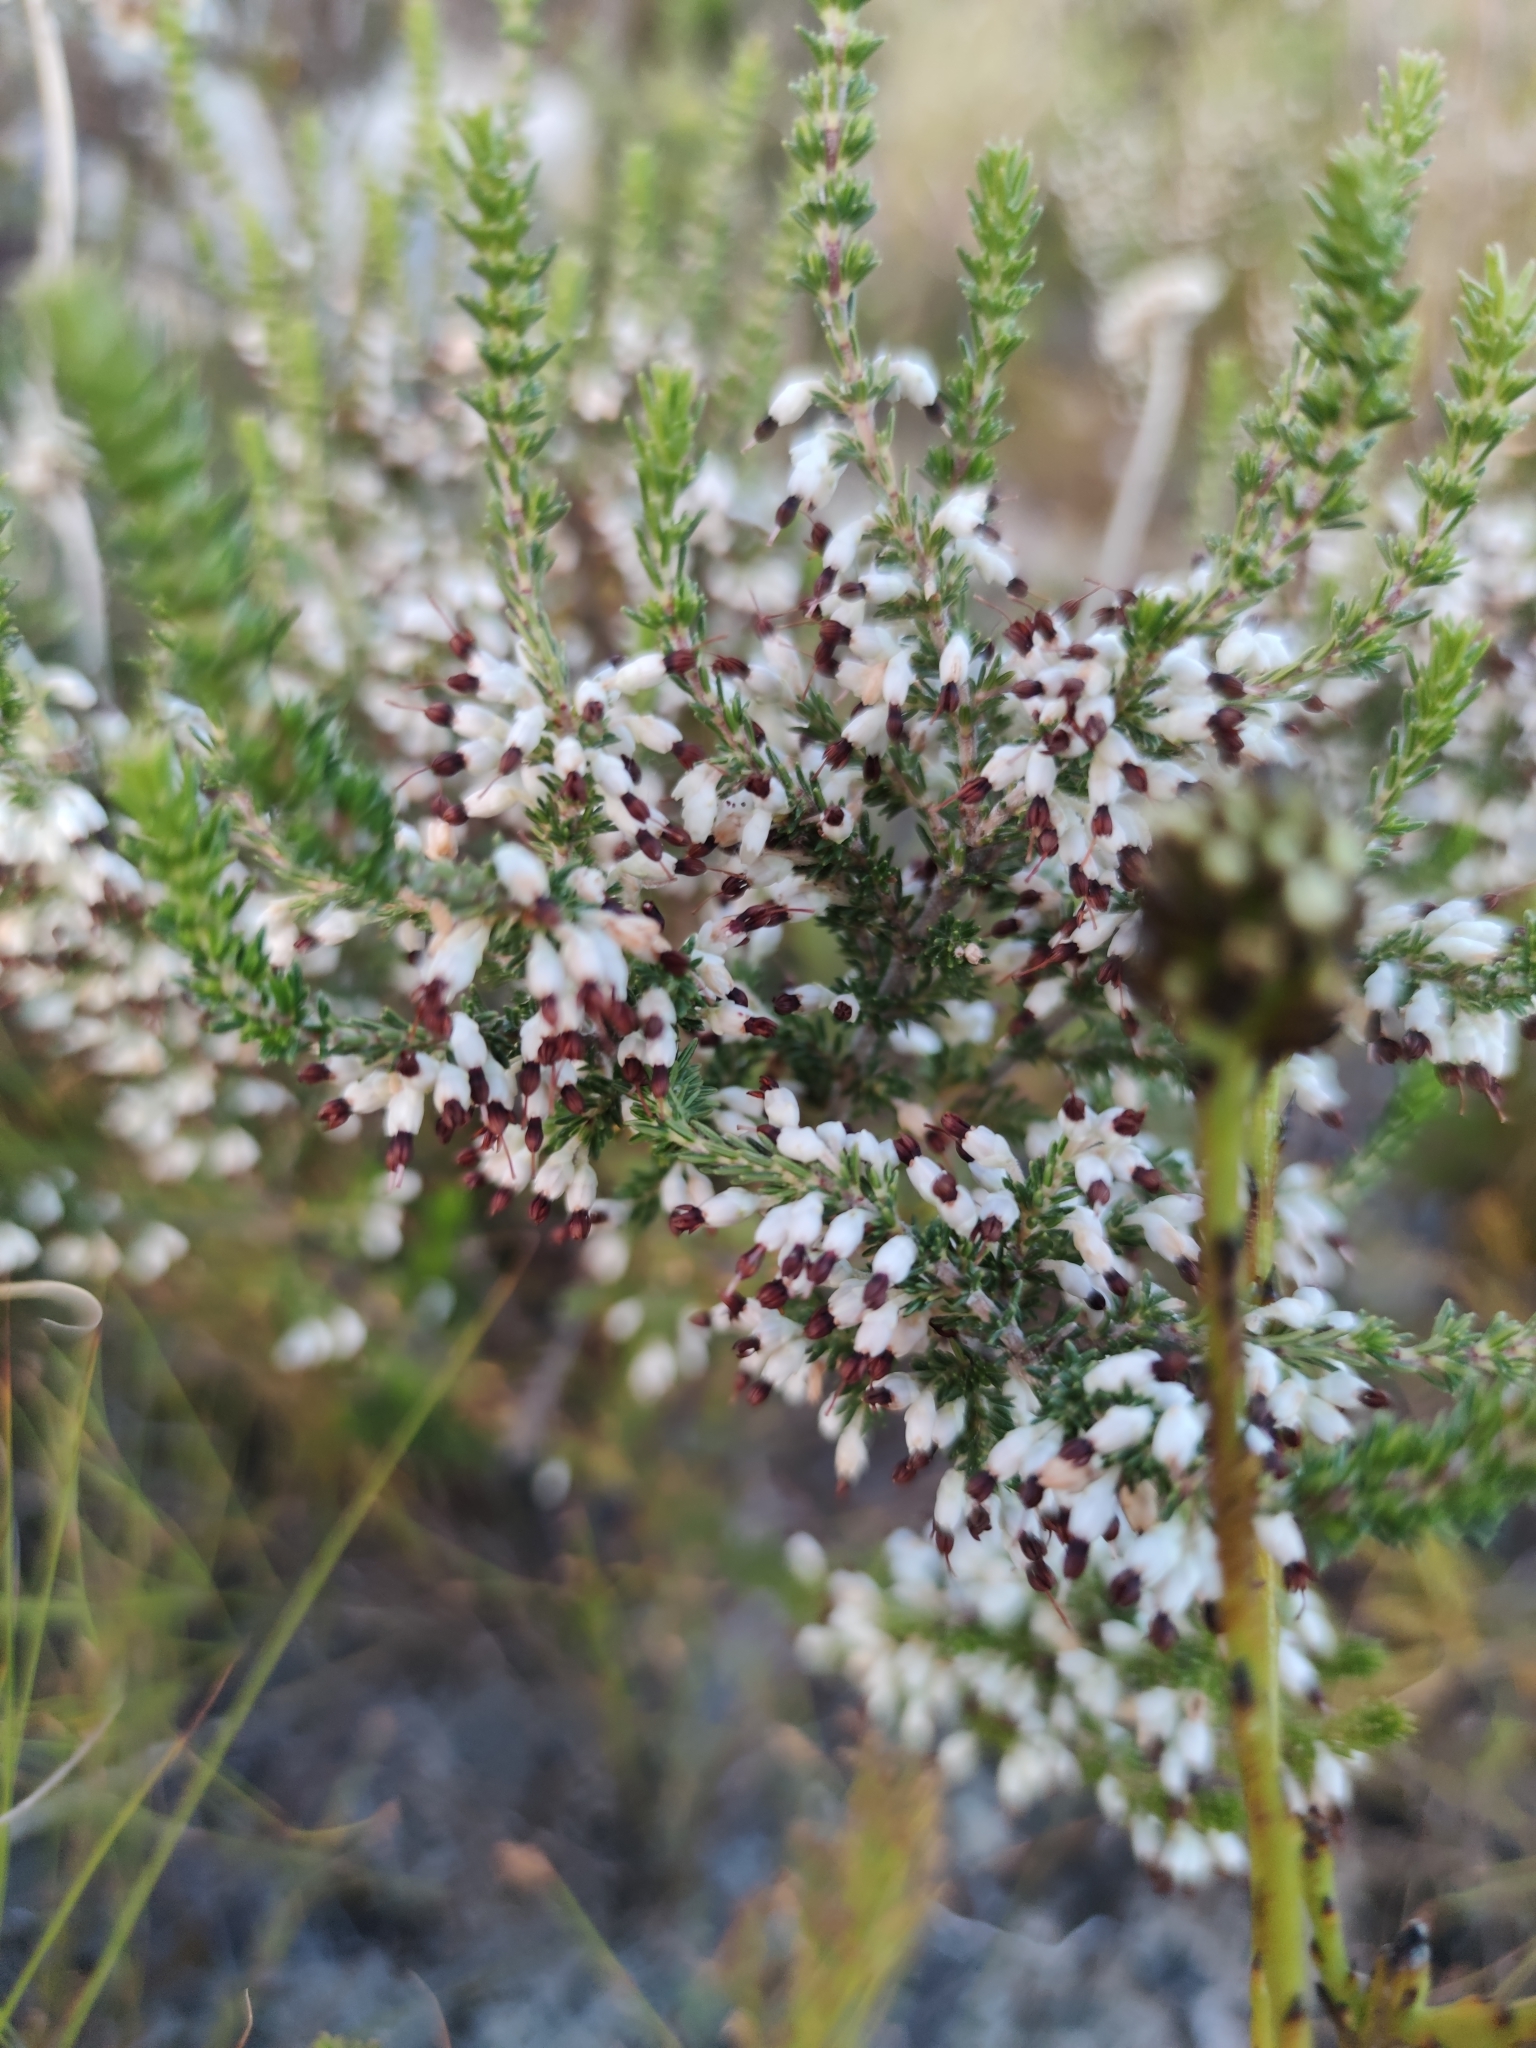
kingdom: Plantae
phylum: Tracheophyta
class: Magnoliopsida
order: Ericales
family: Ericaceae
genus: Erica
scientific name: Erica imbricata
